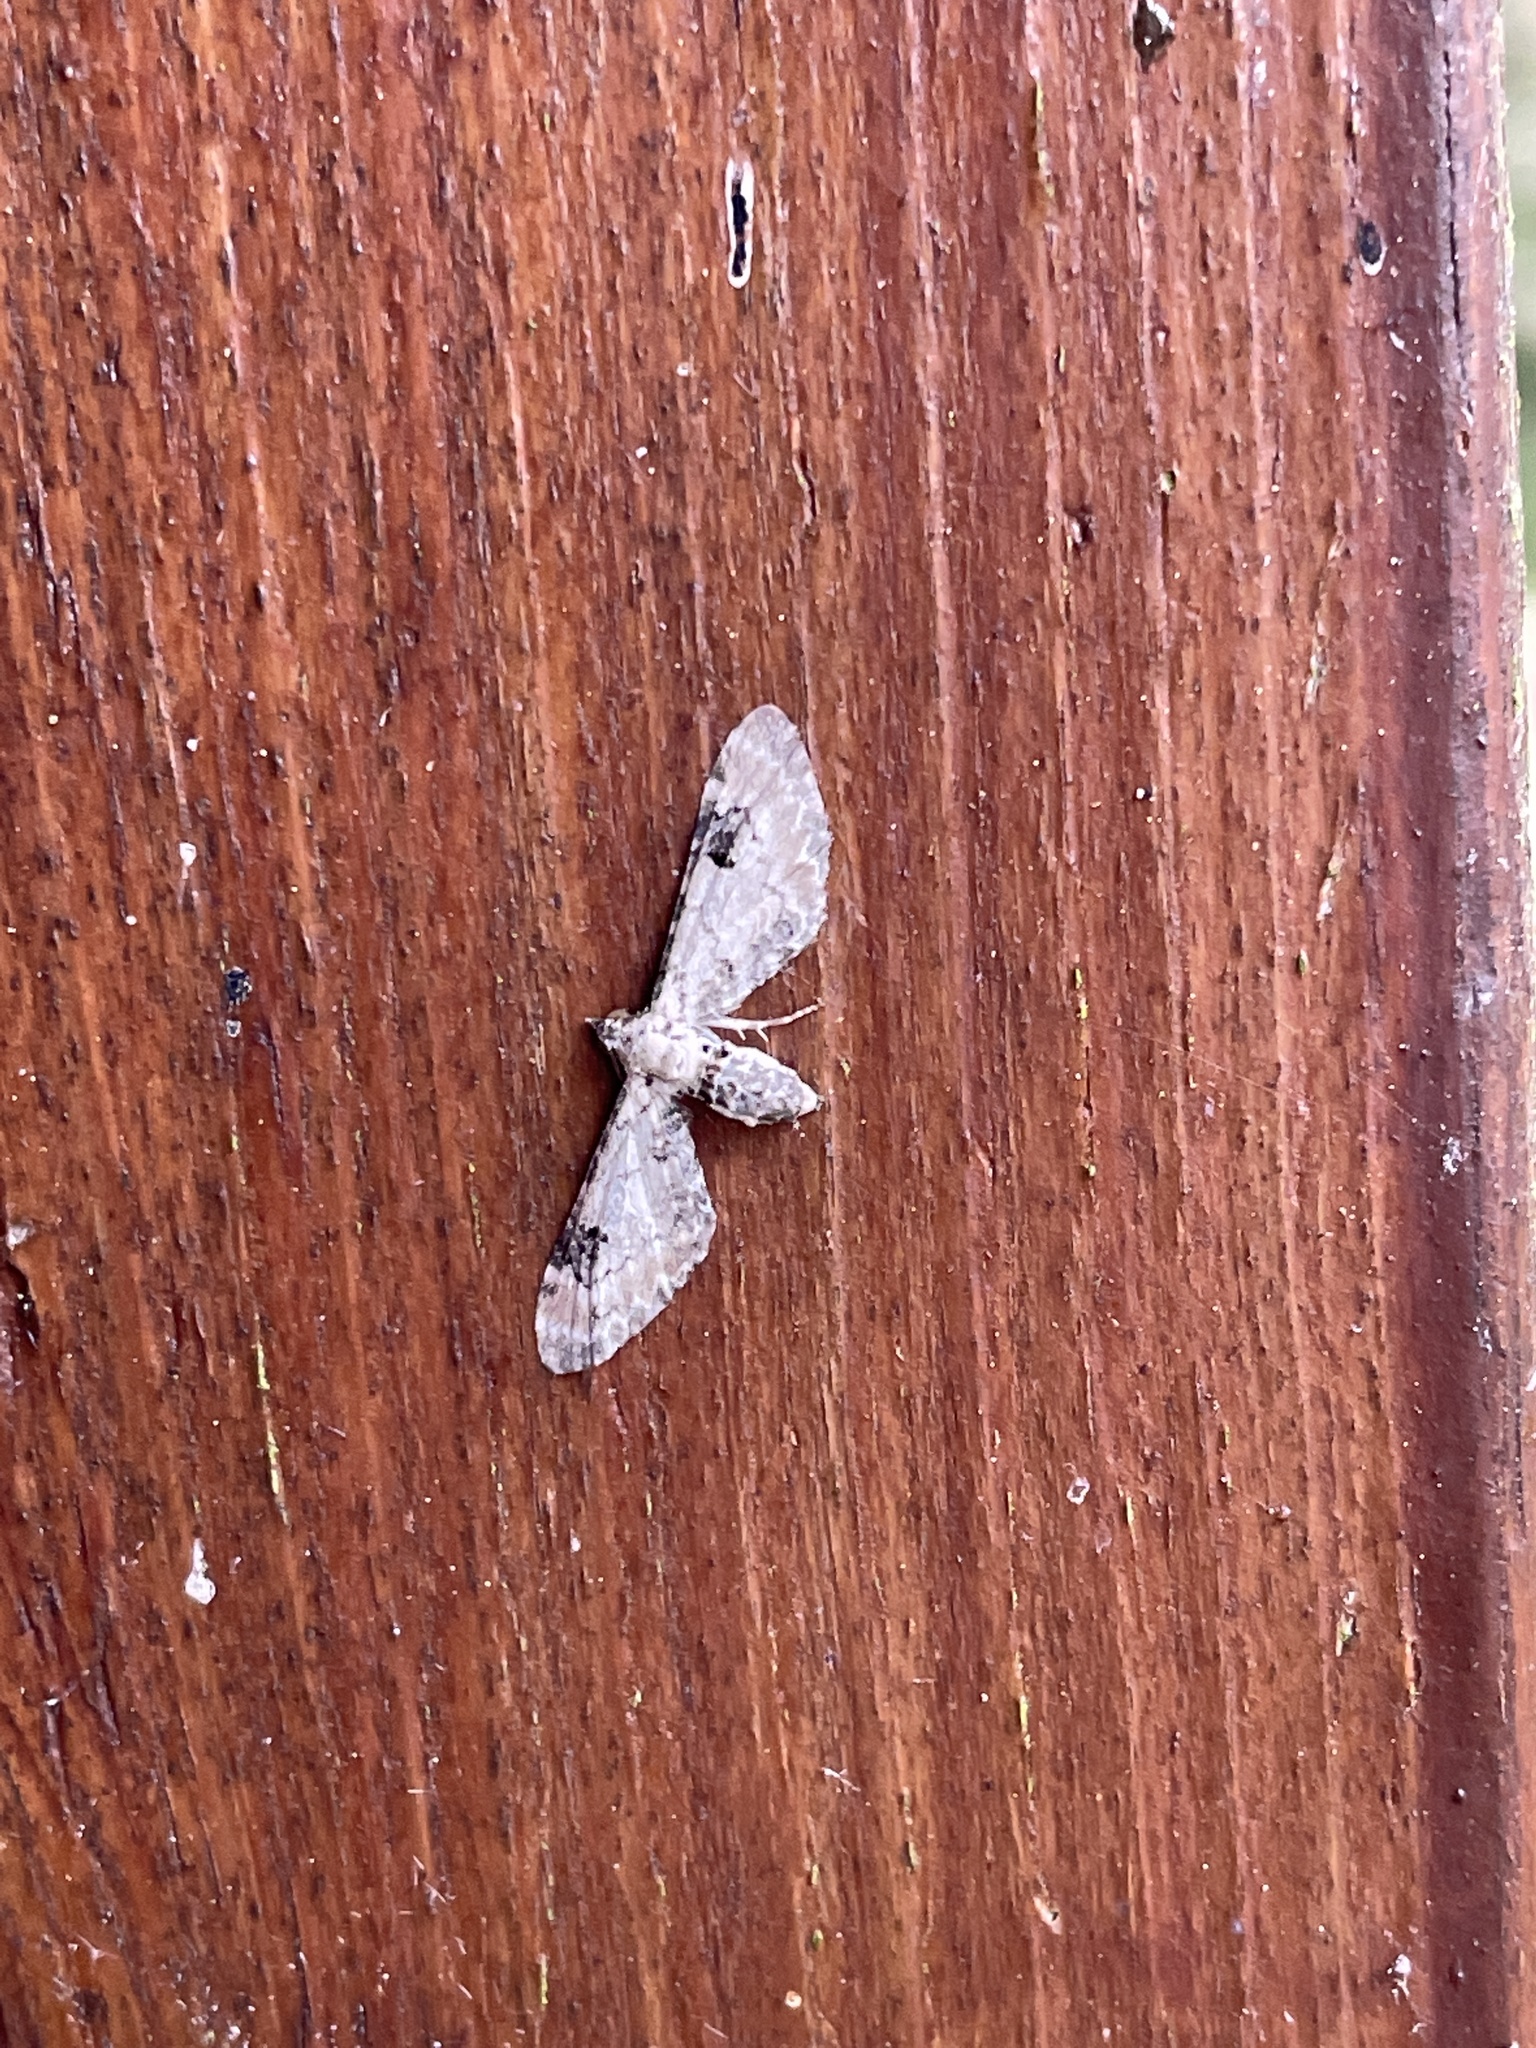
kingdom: Animalia
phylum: Arthropoda
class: Insecta
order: Lepidoptera
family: Geometridae
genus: Eupithecia
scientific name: Eupithecia centaureata
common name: Lime-speck pug
